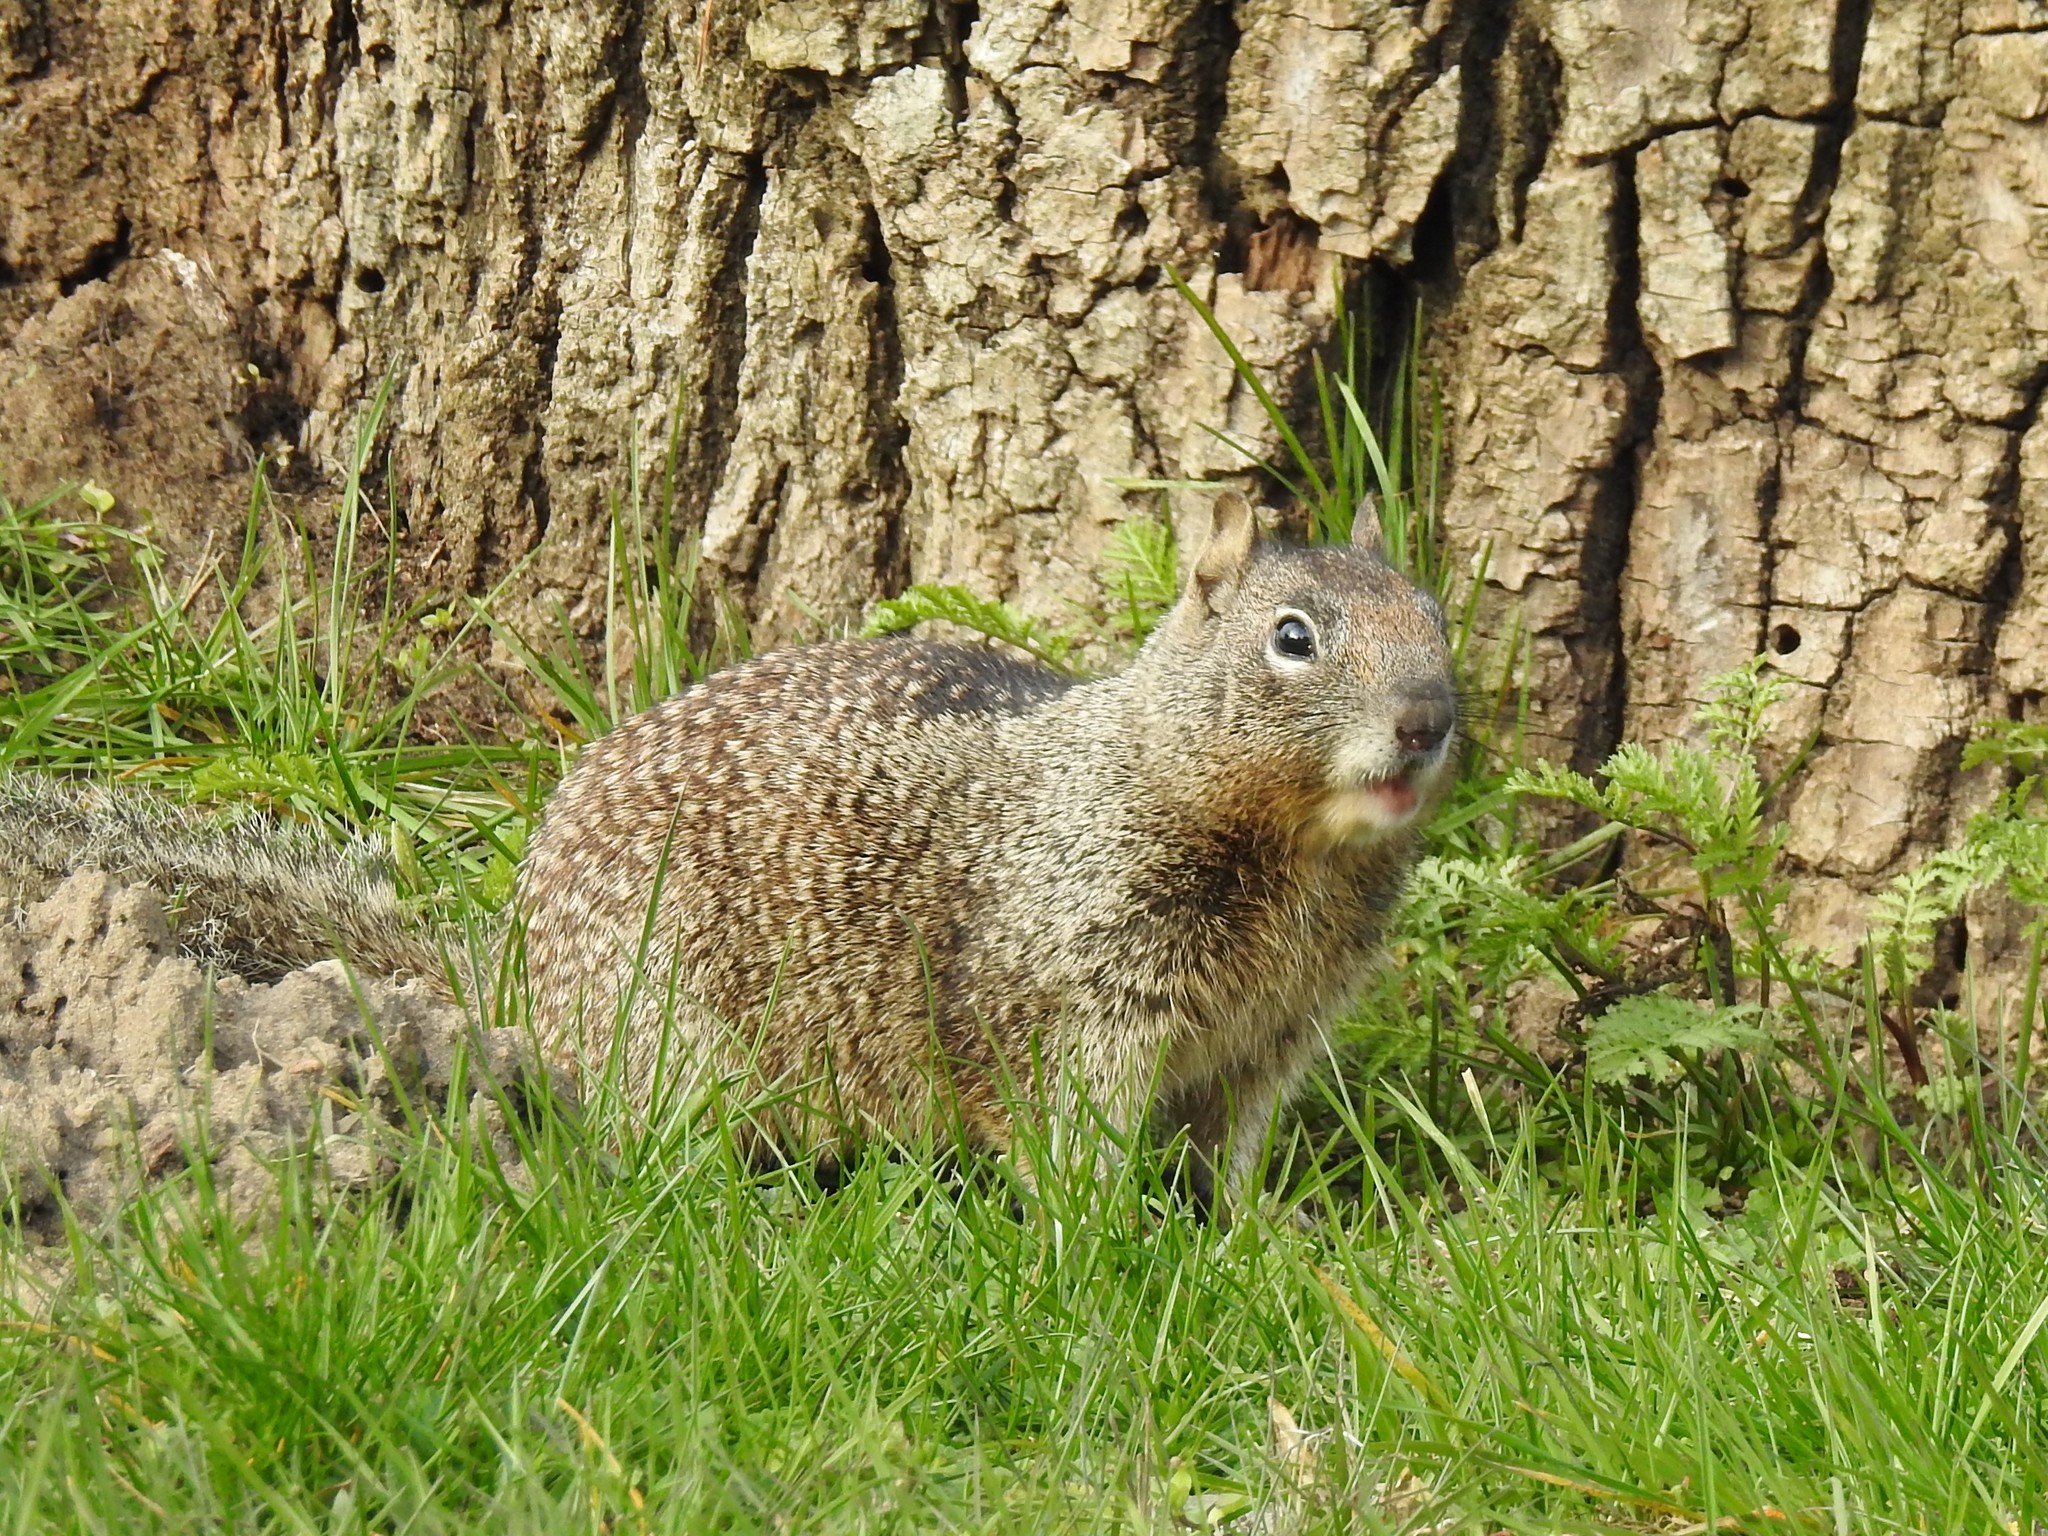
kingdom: Animalia
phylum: Chordata
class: Mammalia
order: Rodentia
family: Sciuridae
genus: Otospermophilus
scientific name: Otospermophilus beecheyi
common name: California ground squirrel
